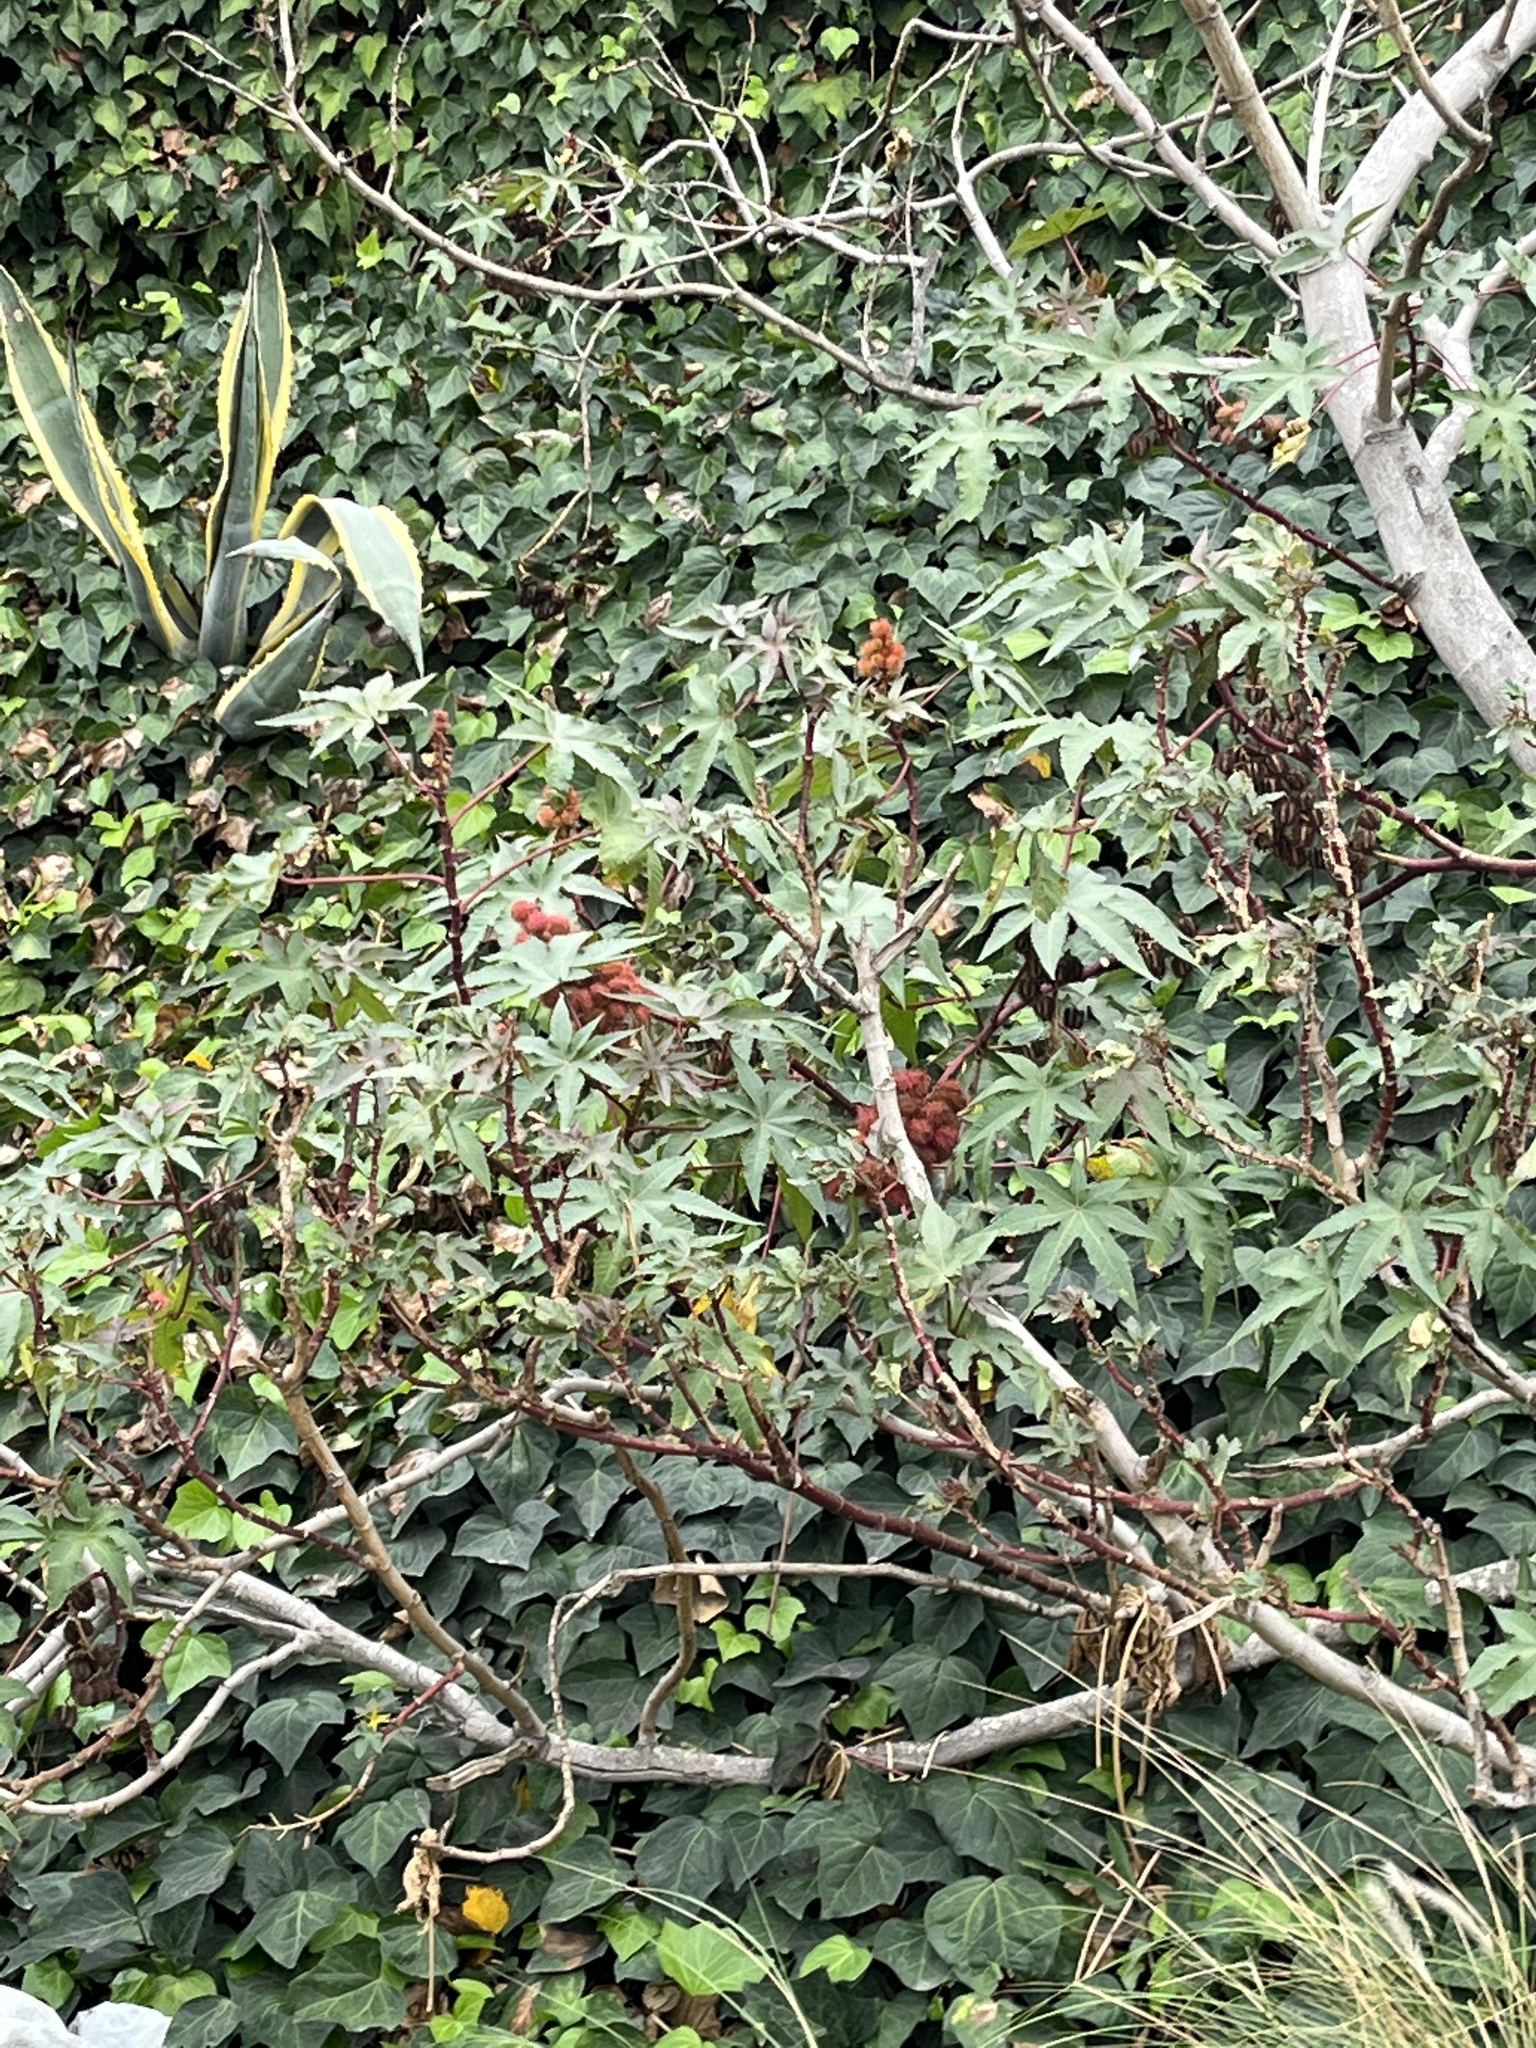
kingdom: Plantae
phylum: Tracheophyta
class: Magnoliopsida
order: Malpighiales
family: Euphorbiaceae
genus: Ricinus
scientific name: Ricinus communis
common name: Castor-oil-plant
